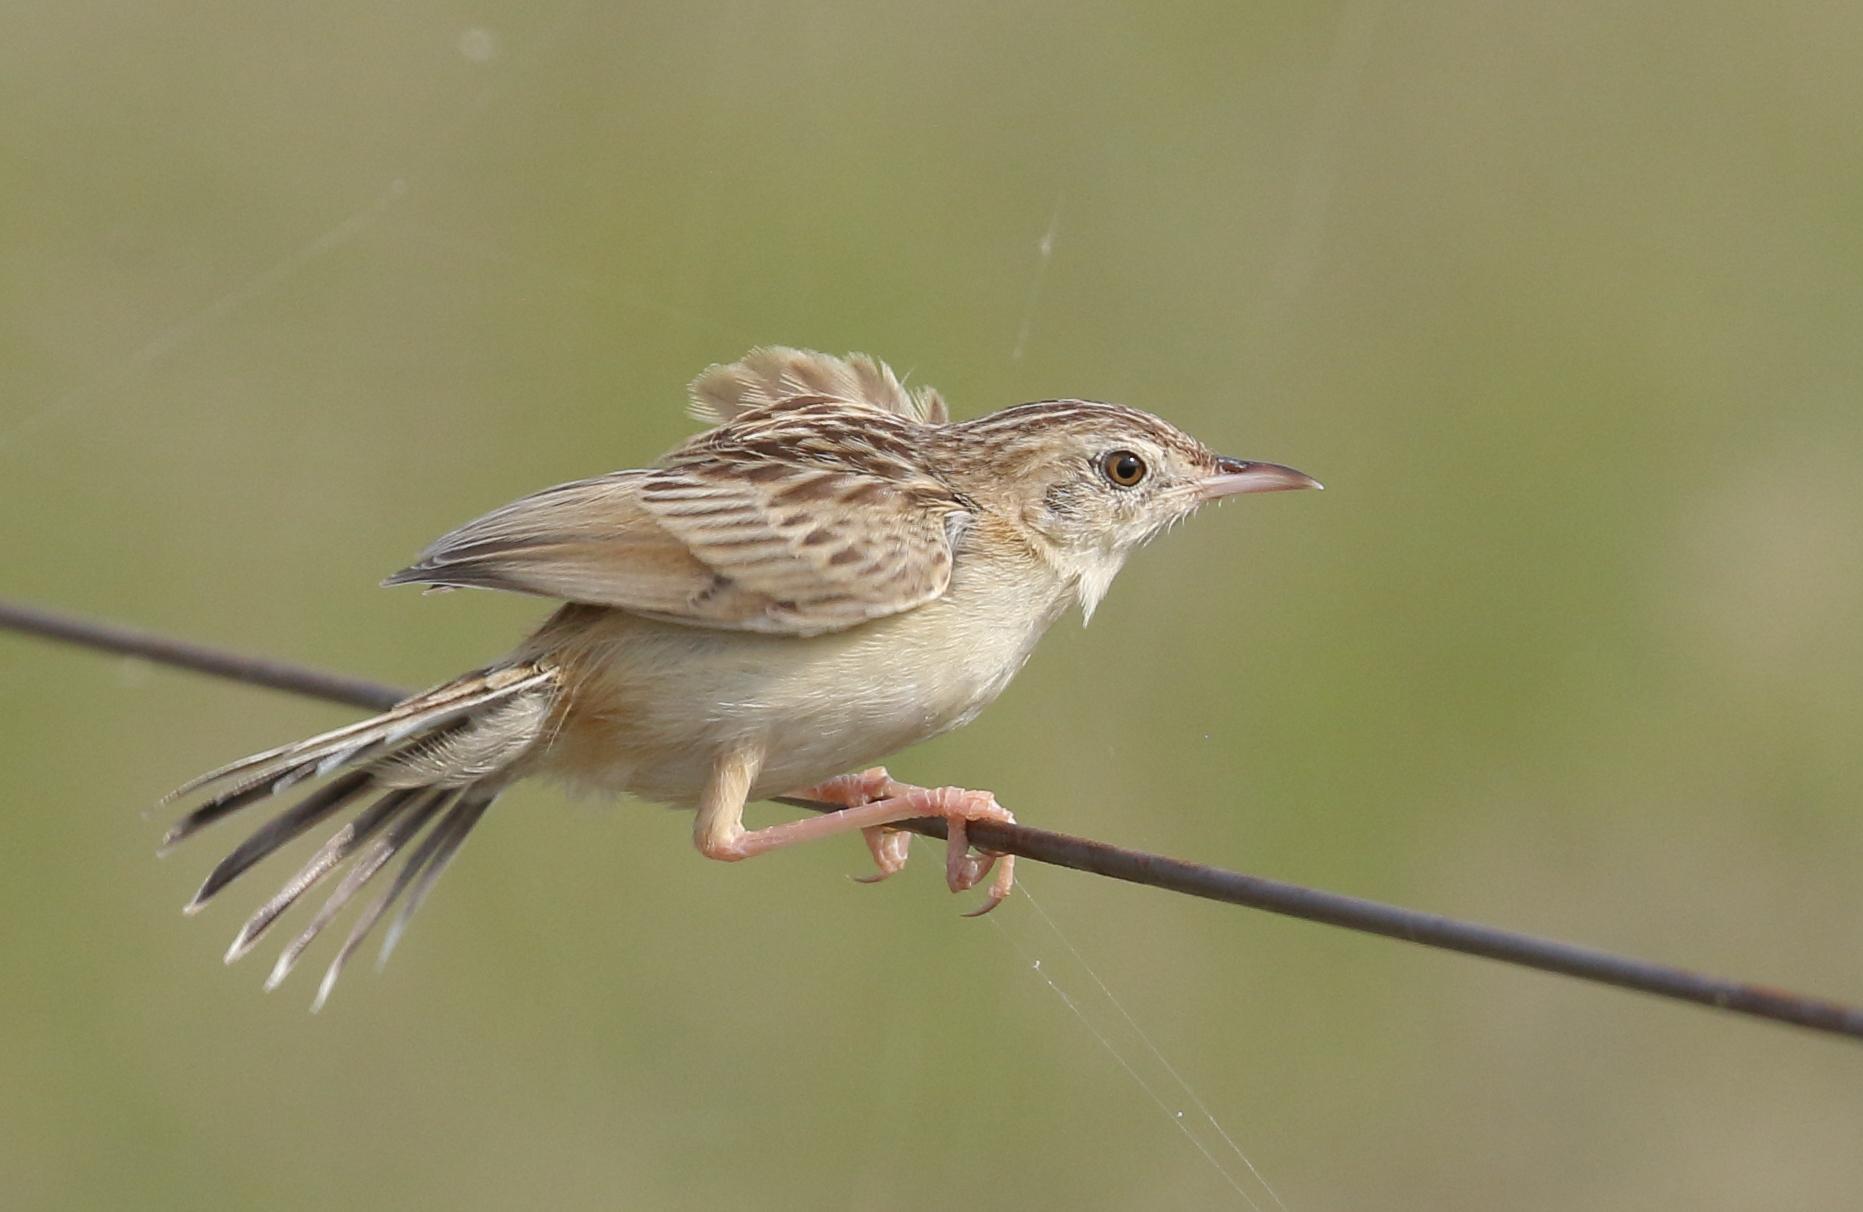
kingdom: Animalia
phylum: Chordata
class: Aves
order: Passeriformes
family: Cisticolidae
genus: Cisticola
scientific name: Cisticola aridulus
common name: Desert cisticola
